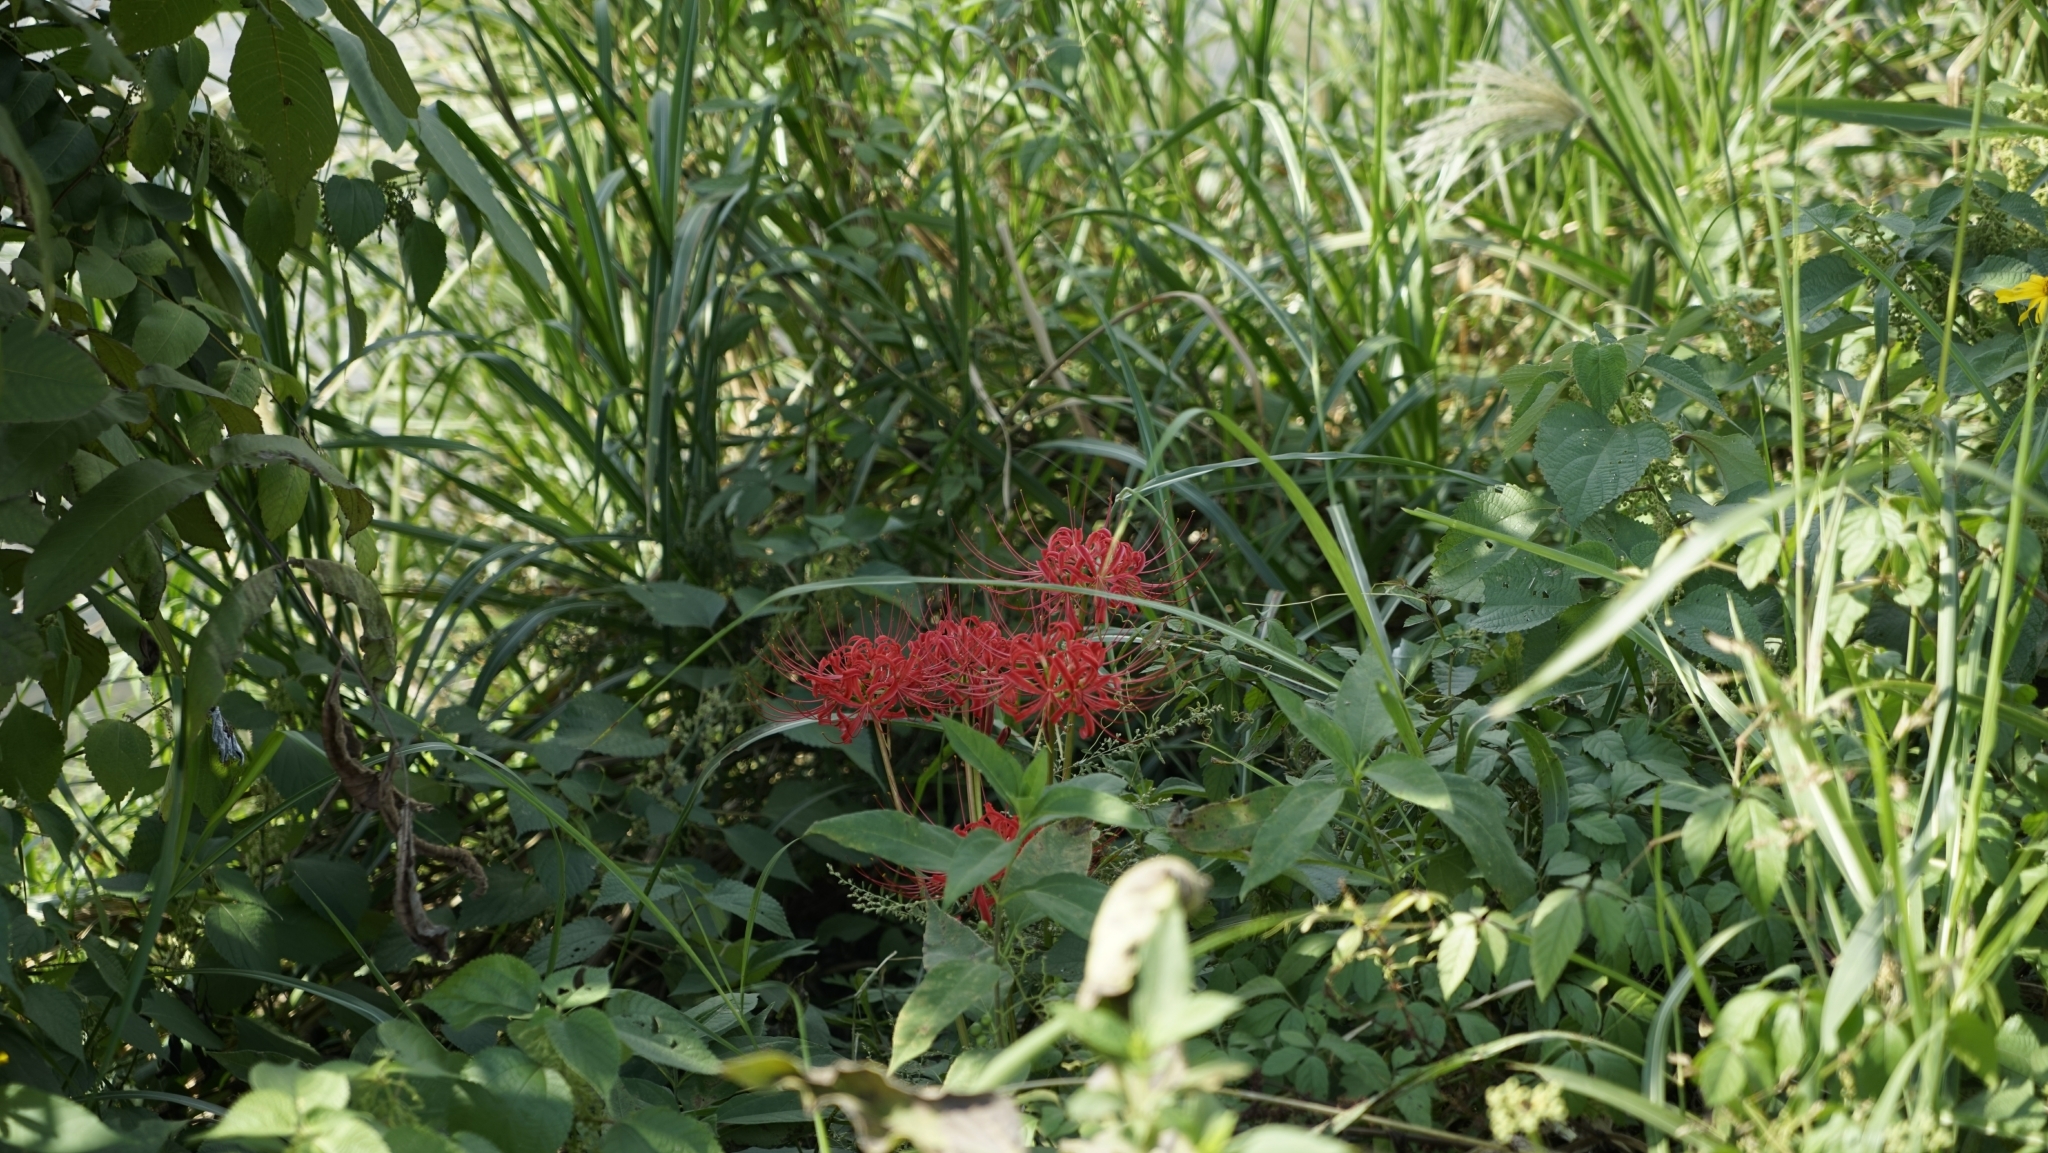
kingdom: Plantae
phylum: Tracheophyta
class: Liliopsida
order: Asparagales
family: Amaryllidaceae
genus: Lycoris
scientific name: Lycoris radiata
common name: Red spider lily
